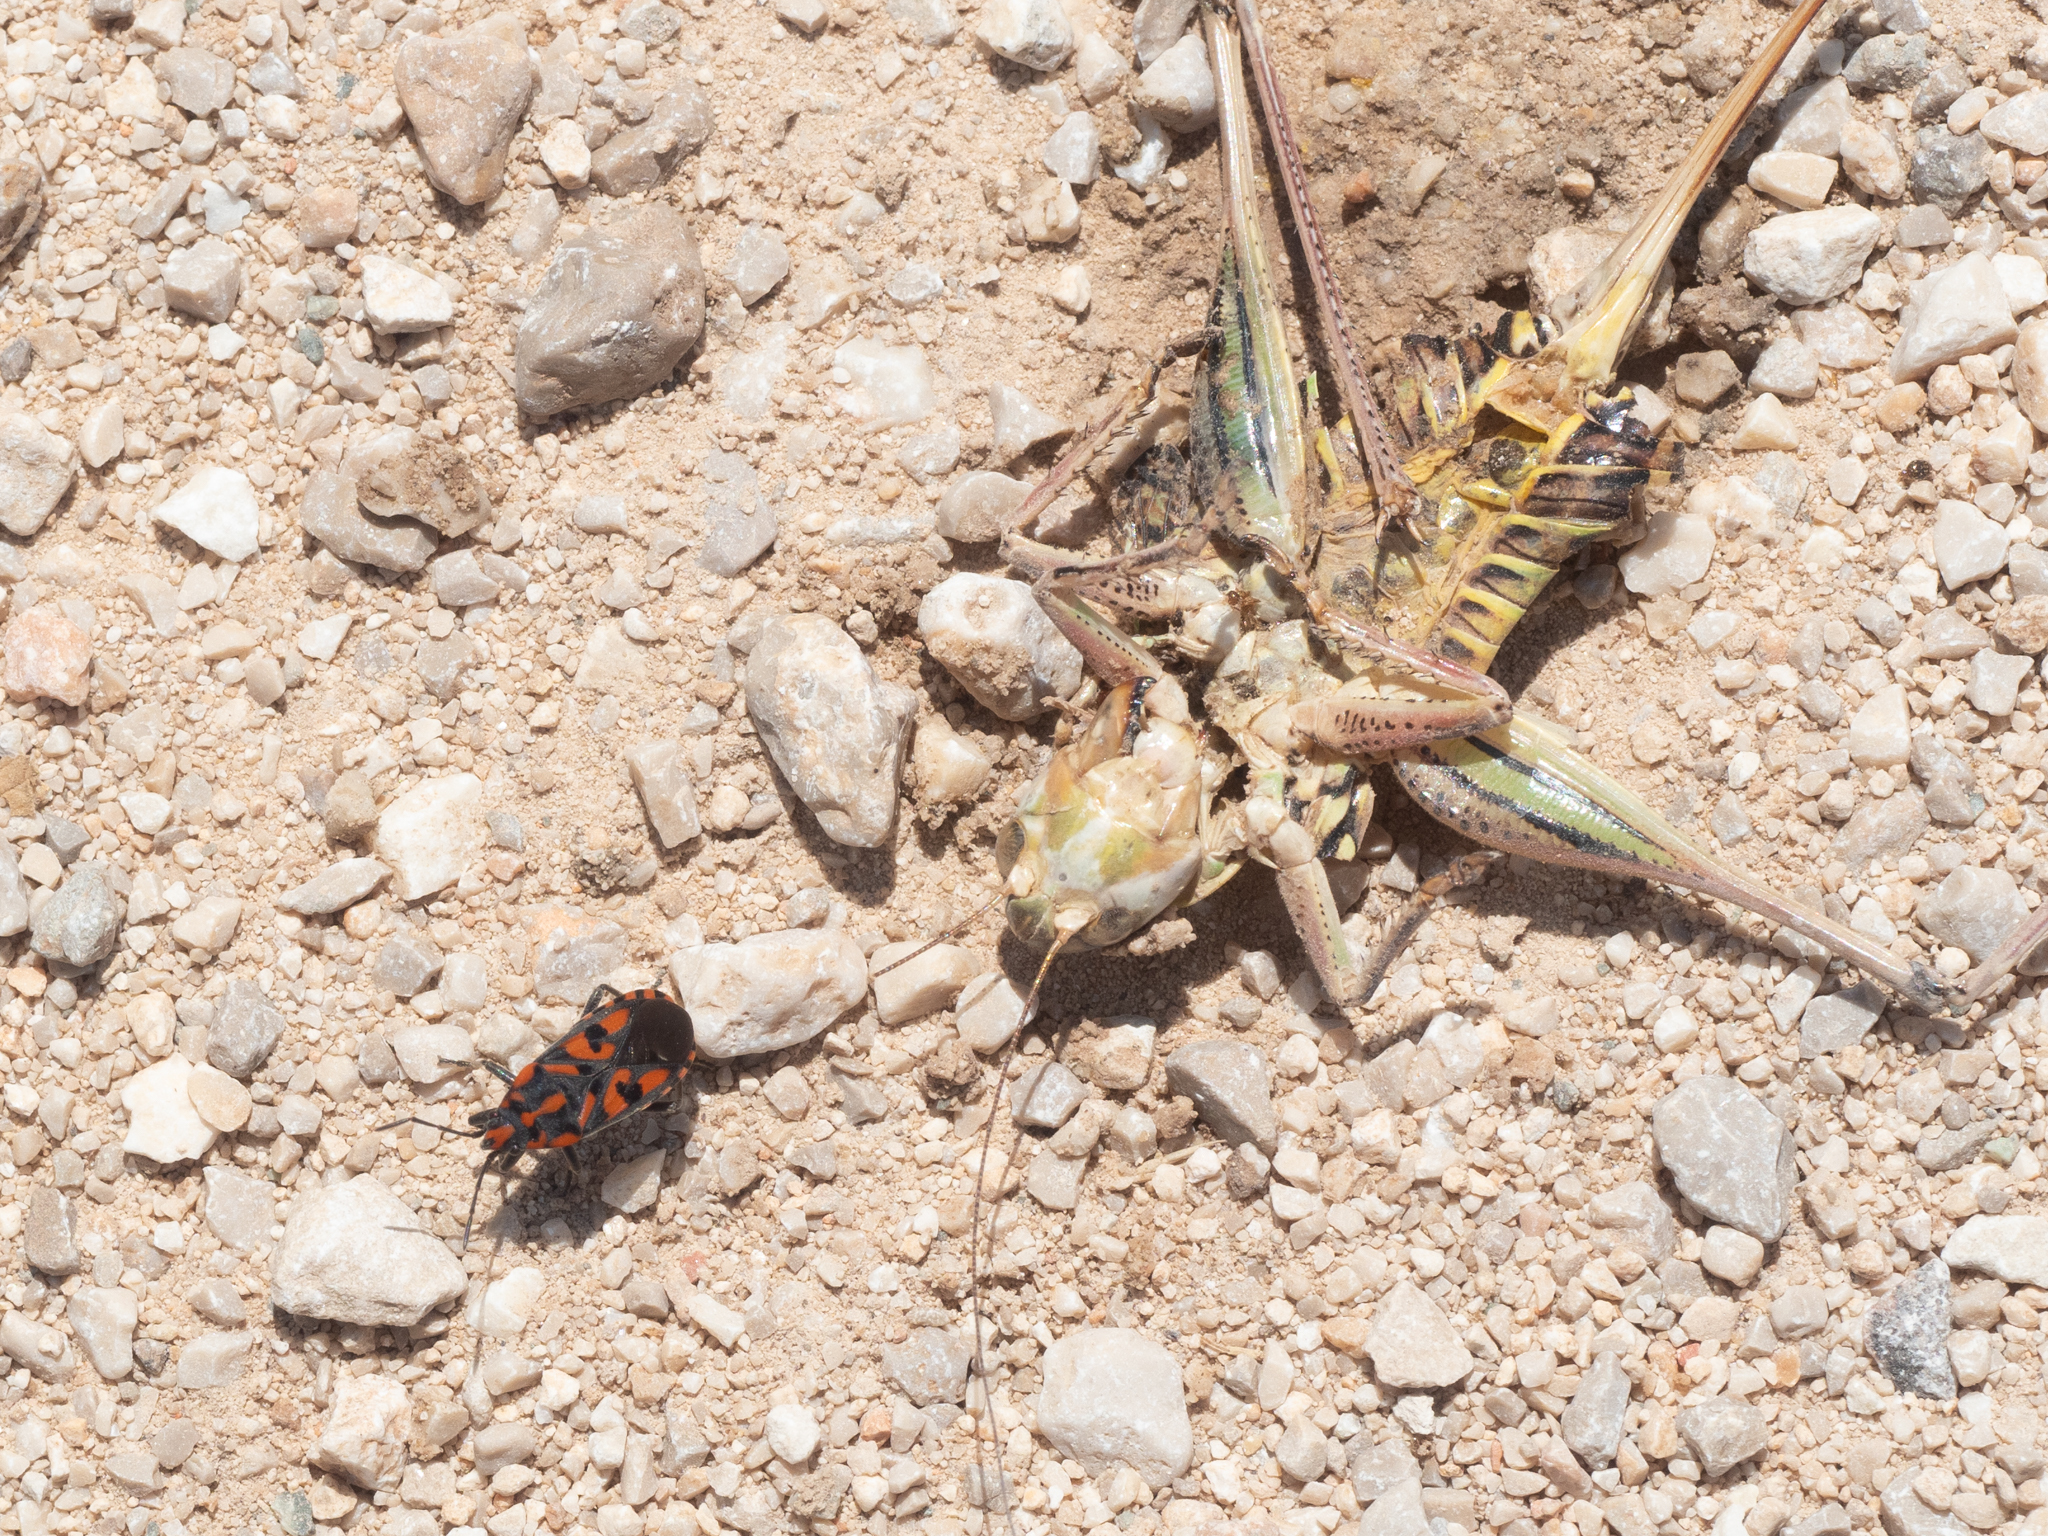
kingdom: Animalia
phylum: Arthropoda
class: Insecta
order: Hemiptera
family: Lygaeidae
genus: Spilostethus
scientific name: Spilostethus saxatilis
